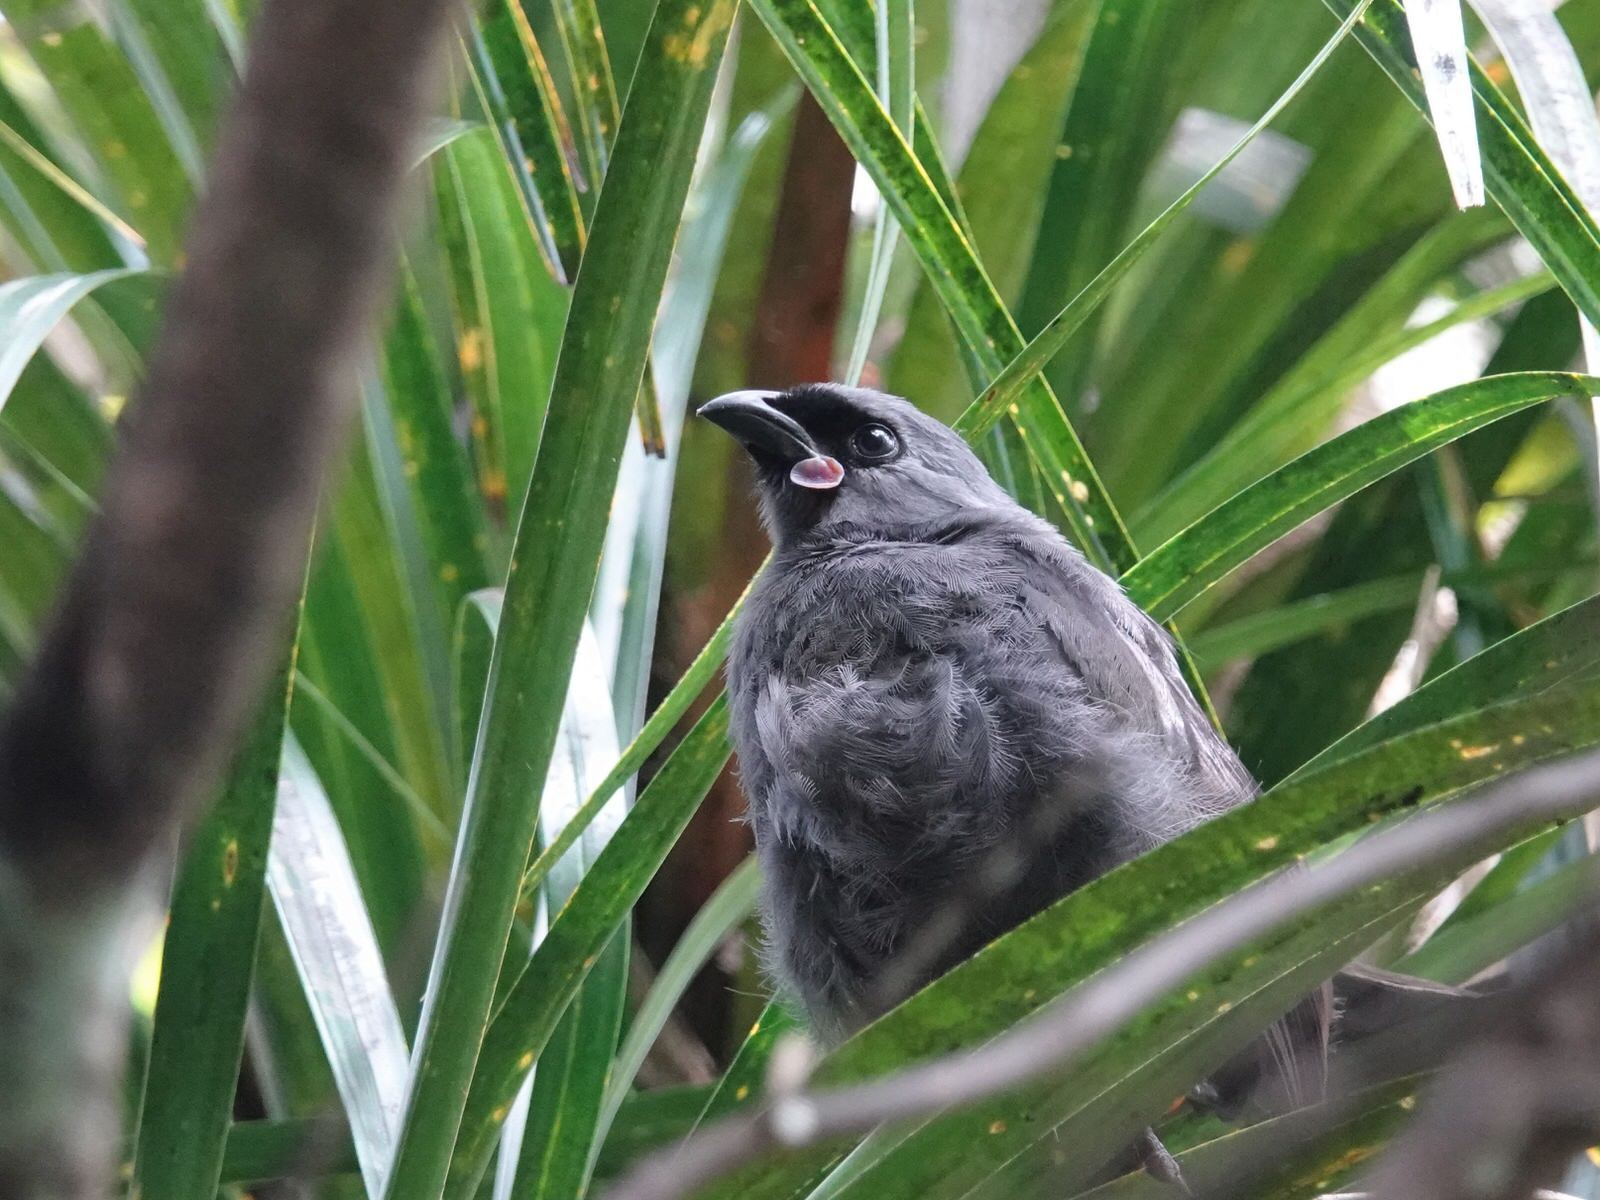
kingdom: Animalia
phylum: Chordata
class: Aves
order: Passeriformes
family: Callaeatidae
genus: Callaeas
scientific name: Callaeas cinereus
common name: South island kokako
